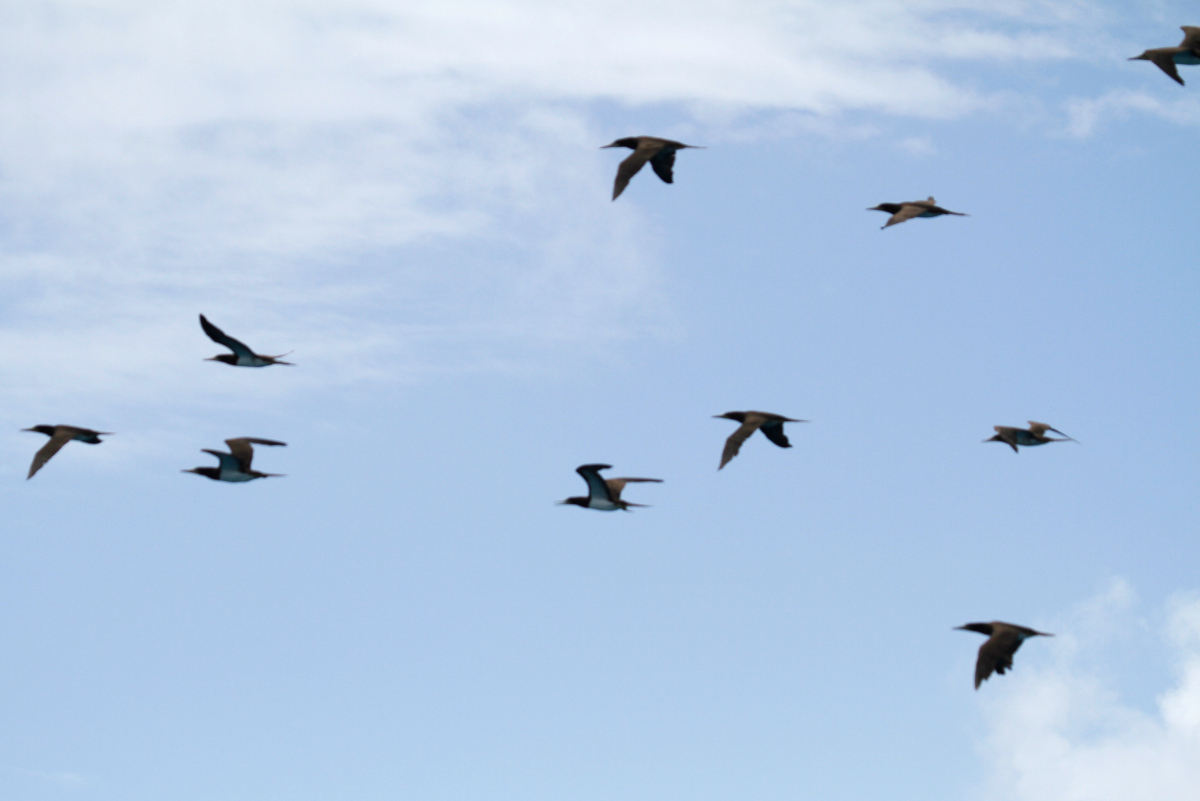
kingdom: Animalia
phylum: Chordata
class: Aves
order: Suliformes
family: Sulidae
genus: Sula
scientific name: Sula leucogaster
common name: Brown booby
